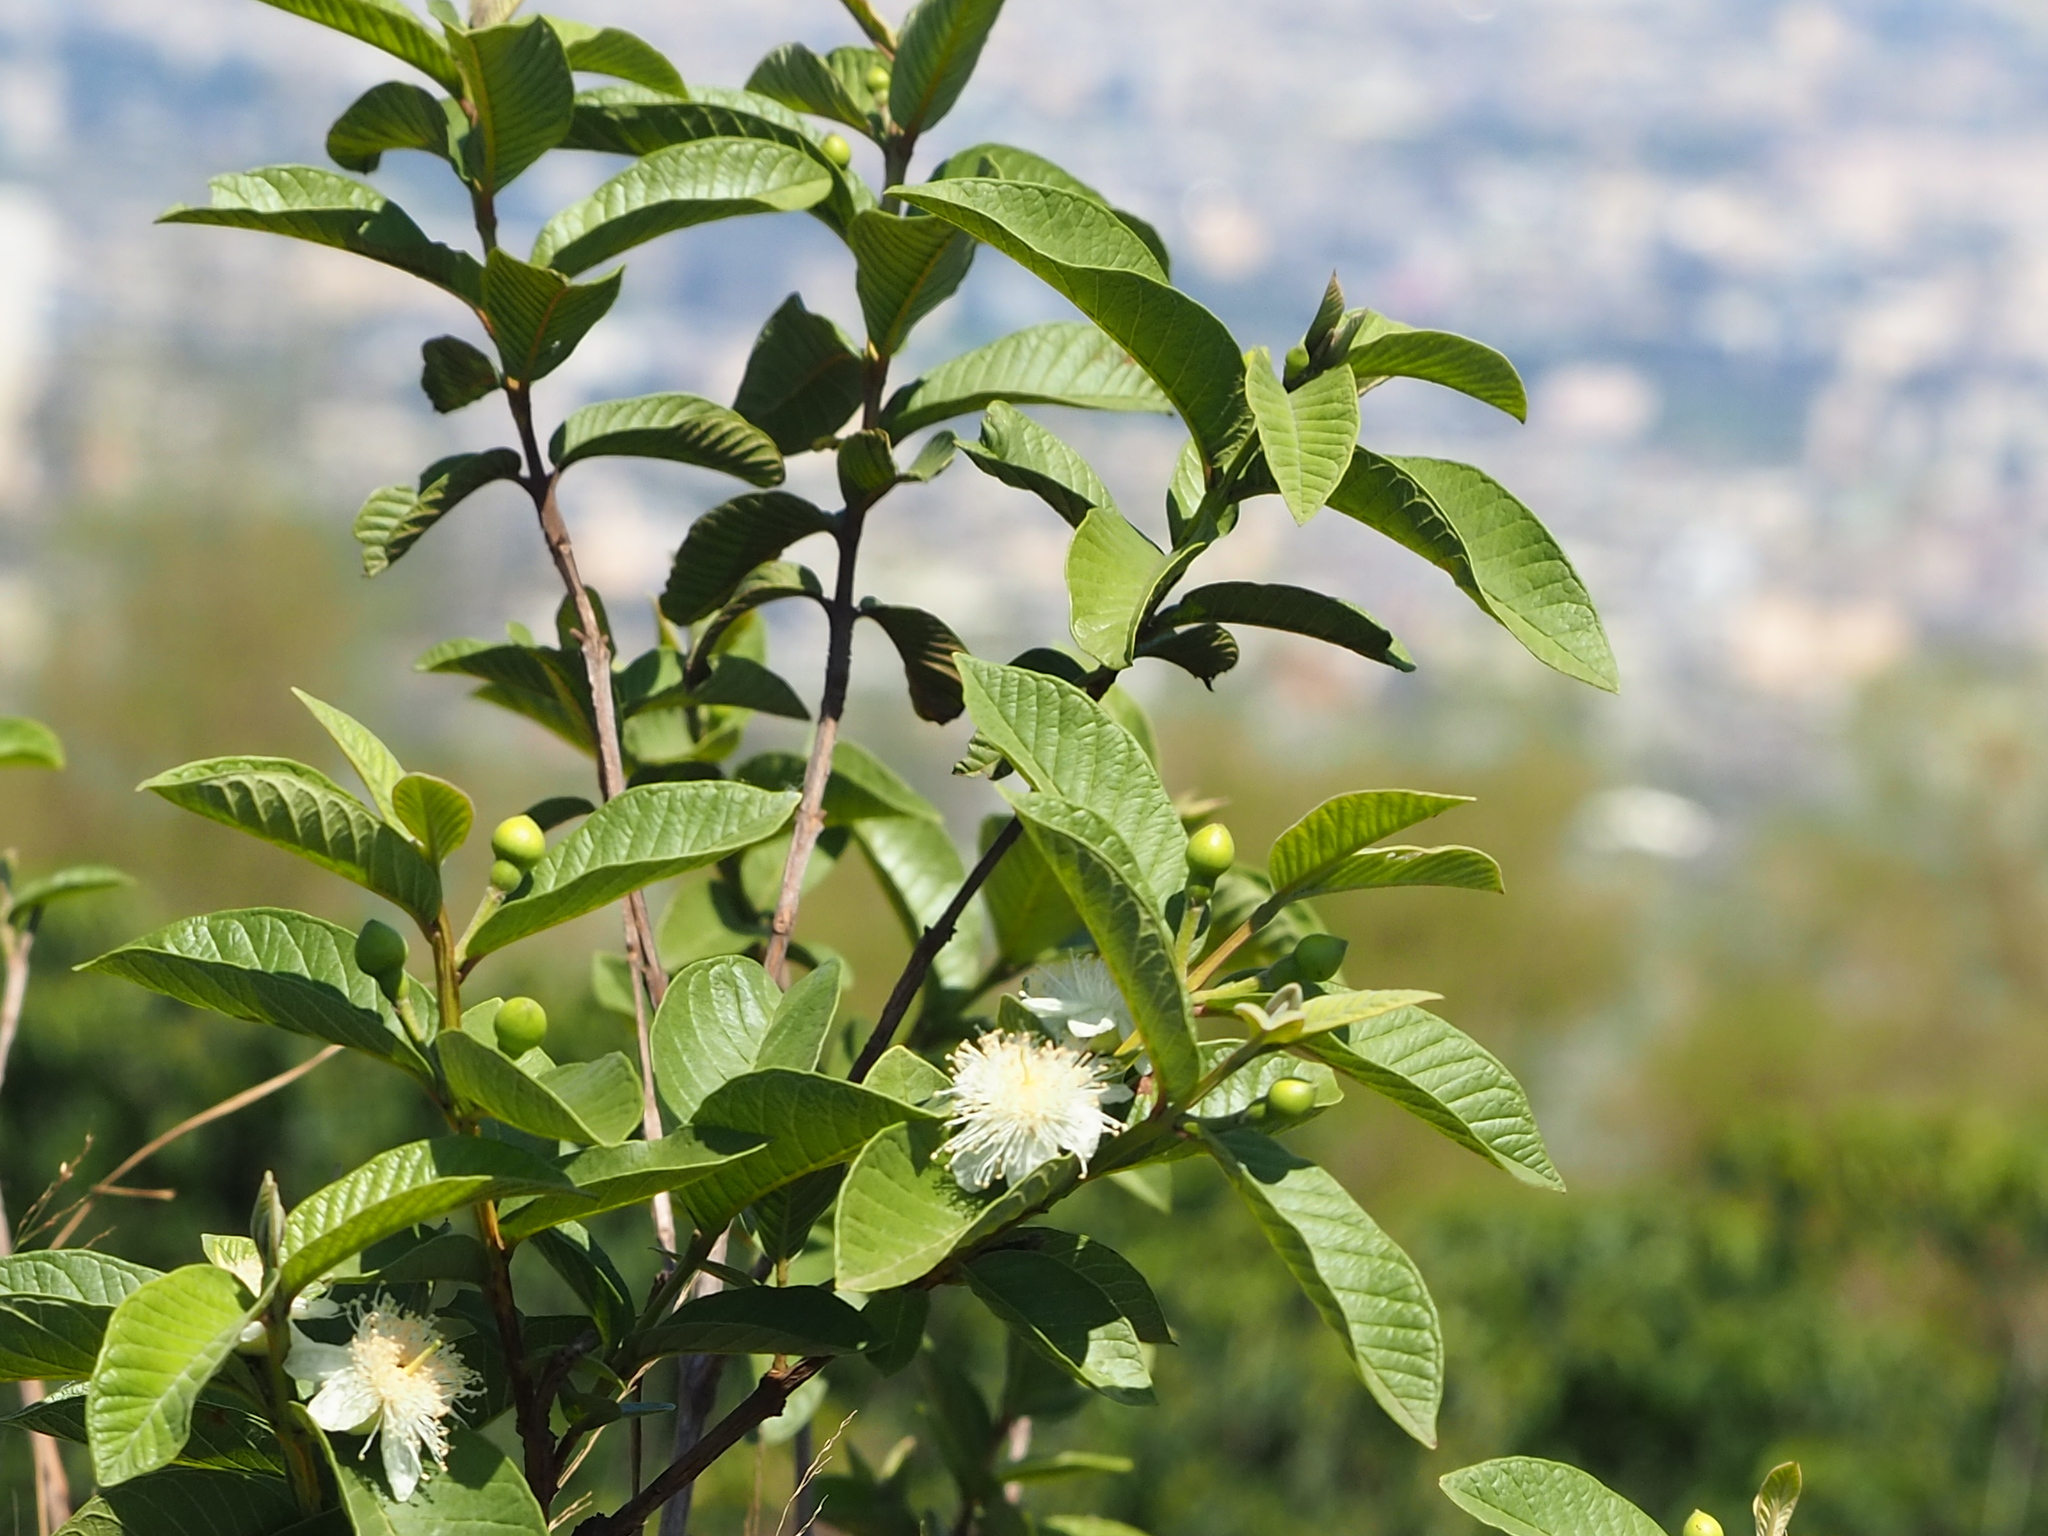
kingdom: Plantae
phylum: Tracheophyta
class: Magnoliopsida
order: Myrtales
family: Myrtaceae
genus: Psidium
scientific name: Psidium guajava
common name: Guava
